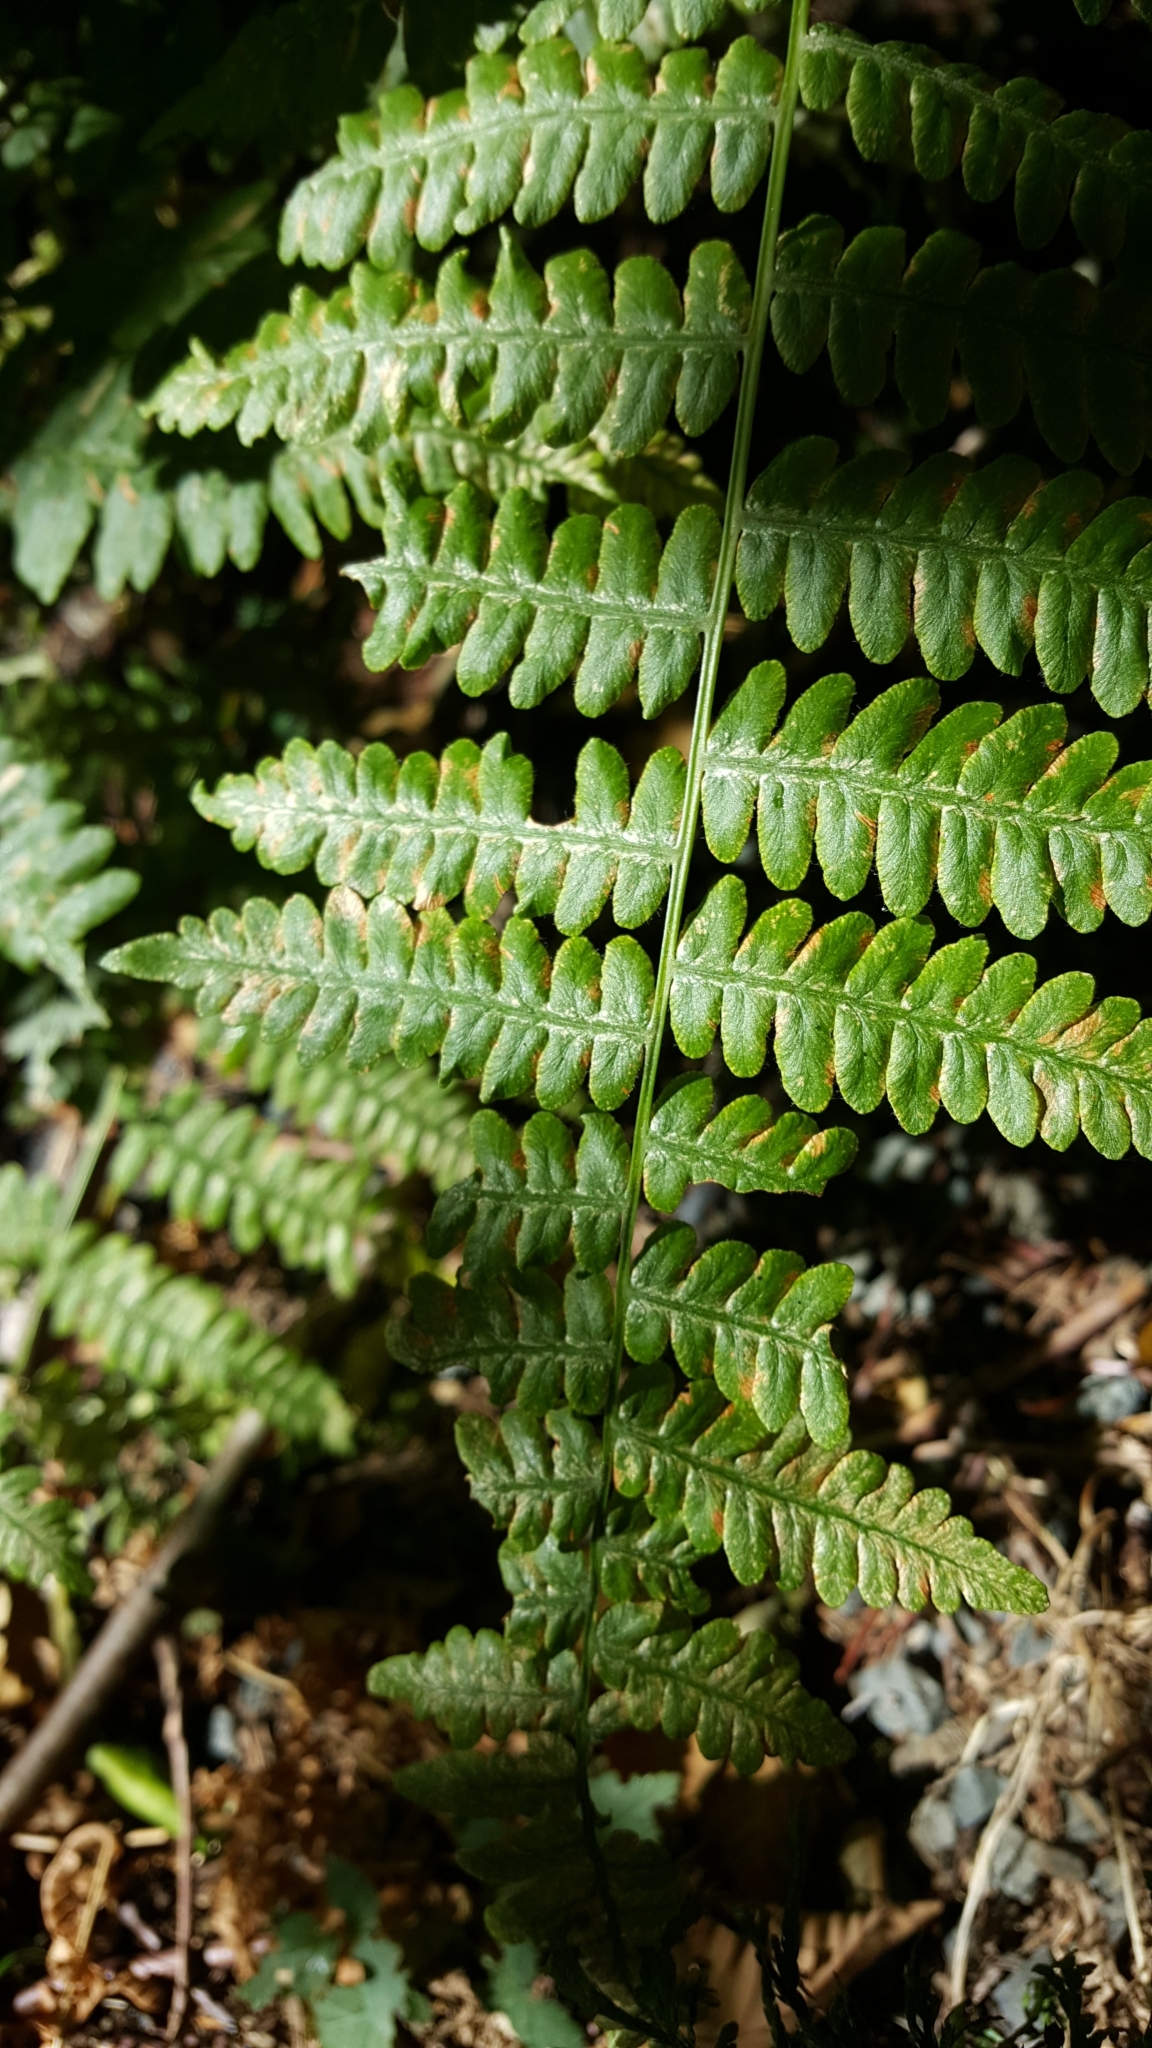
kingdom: Plantae
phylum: Tracheophyta
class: Polypodiopsida
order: Polypodiales
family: Dennstaedtiaceae
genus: Pteridium
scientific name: Pteridium aquilinum
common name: Bracken
